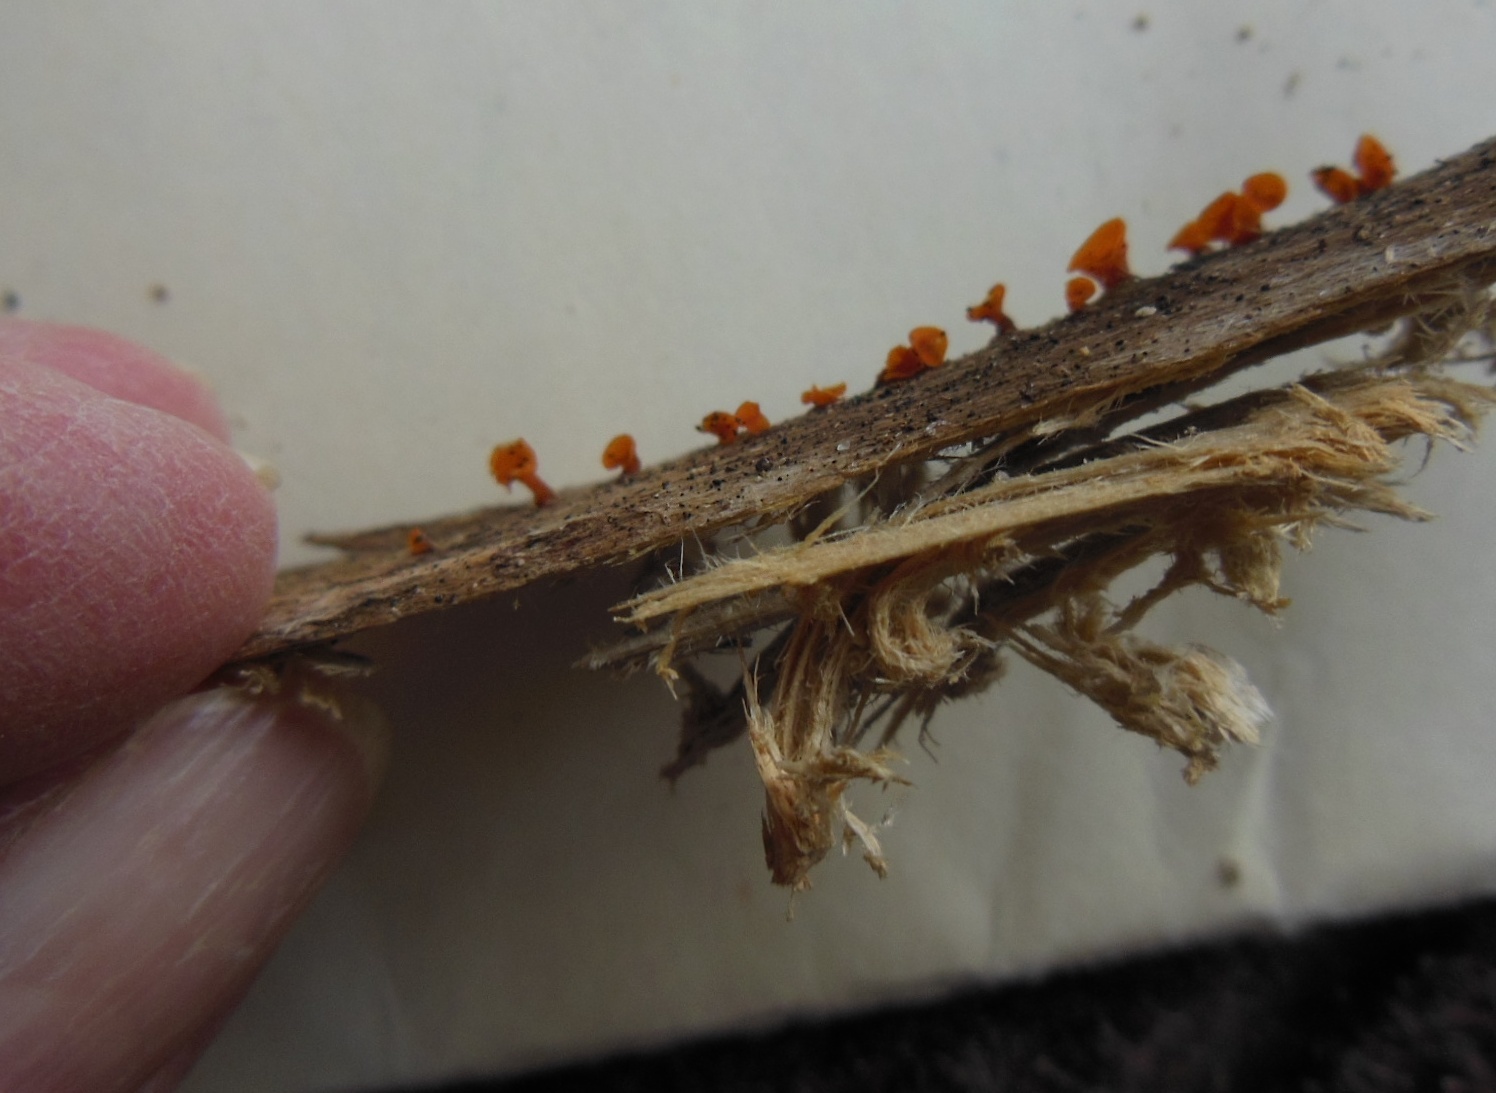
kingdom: Fungi
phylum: Basidiomycota
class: Dacrymycetes
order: Dacrymycetales
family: Dacrymycetaceae
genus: Guepiniopsis
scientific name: Guepiniopsis buccina
